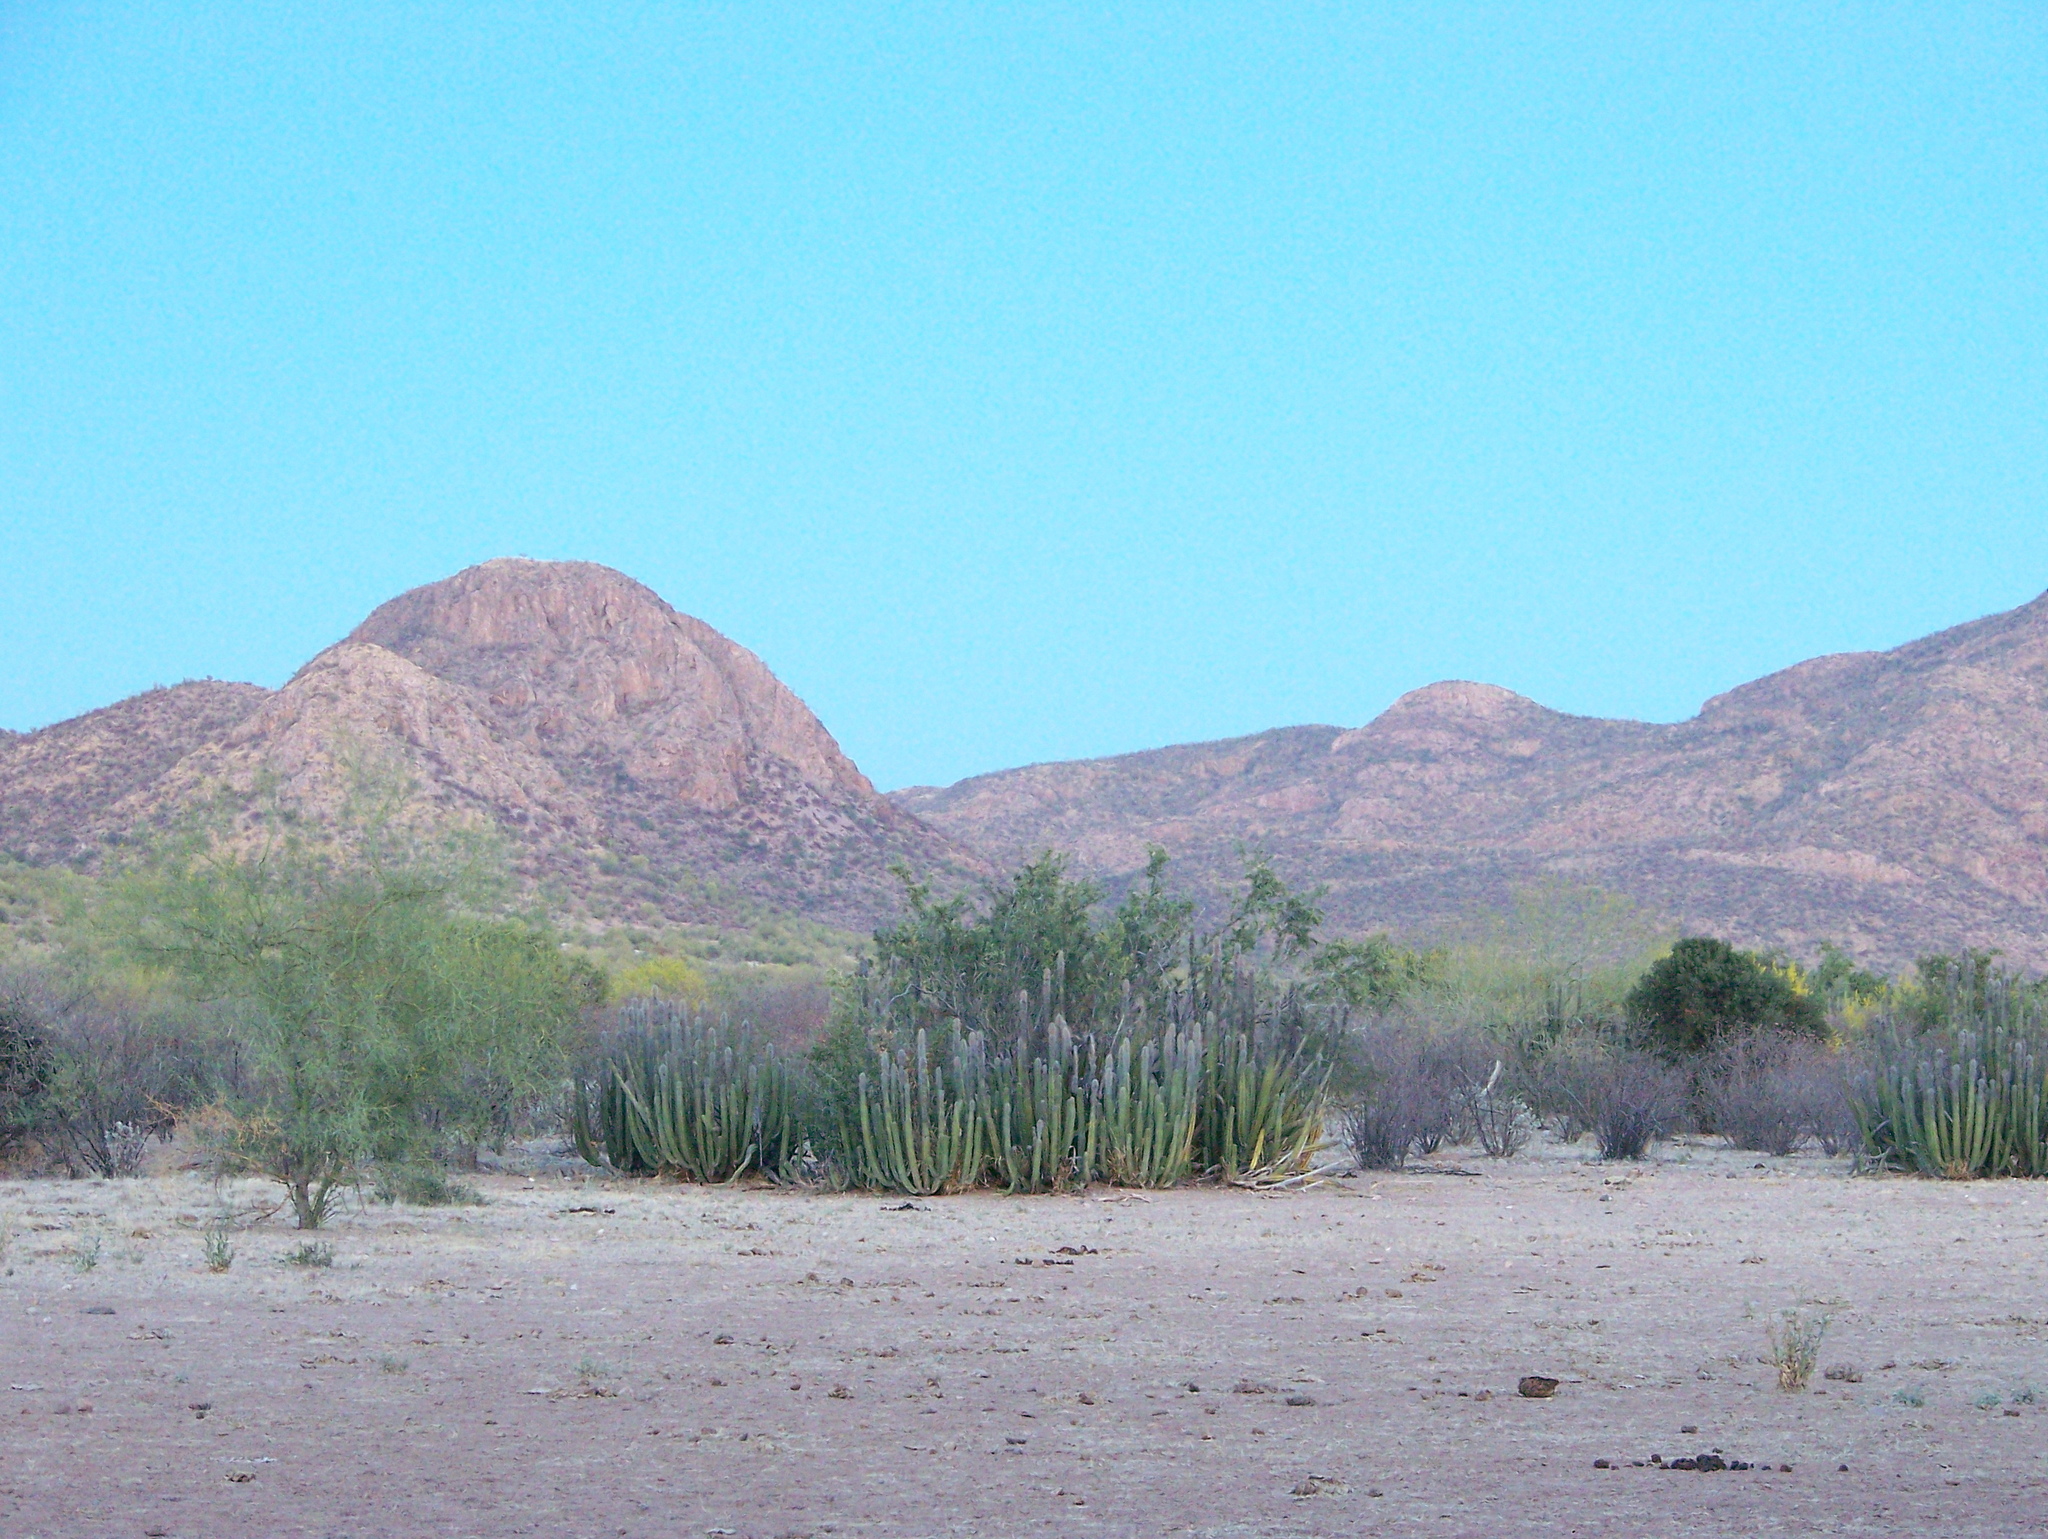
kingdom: Plantae
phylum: Tracheophyta
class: Magnoliopsida
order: Caryophyllales
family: Cactaceae
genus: Pachycereus
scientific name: Pachycereus schottii
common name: Senita cactus
